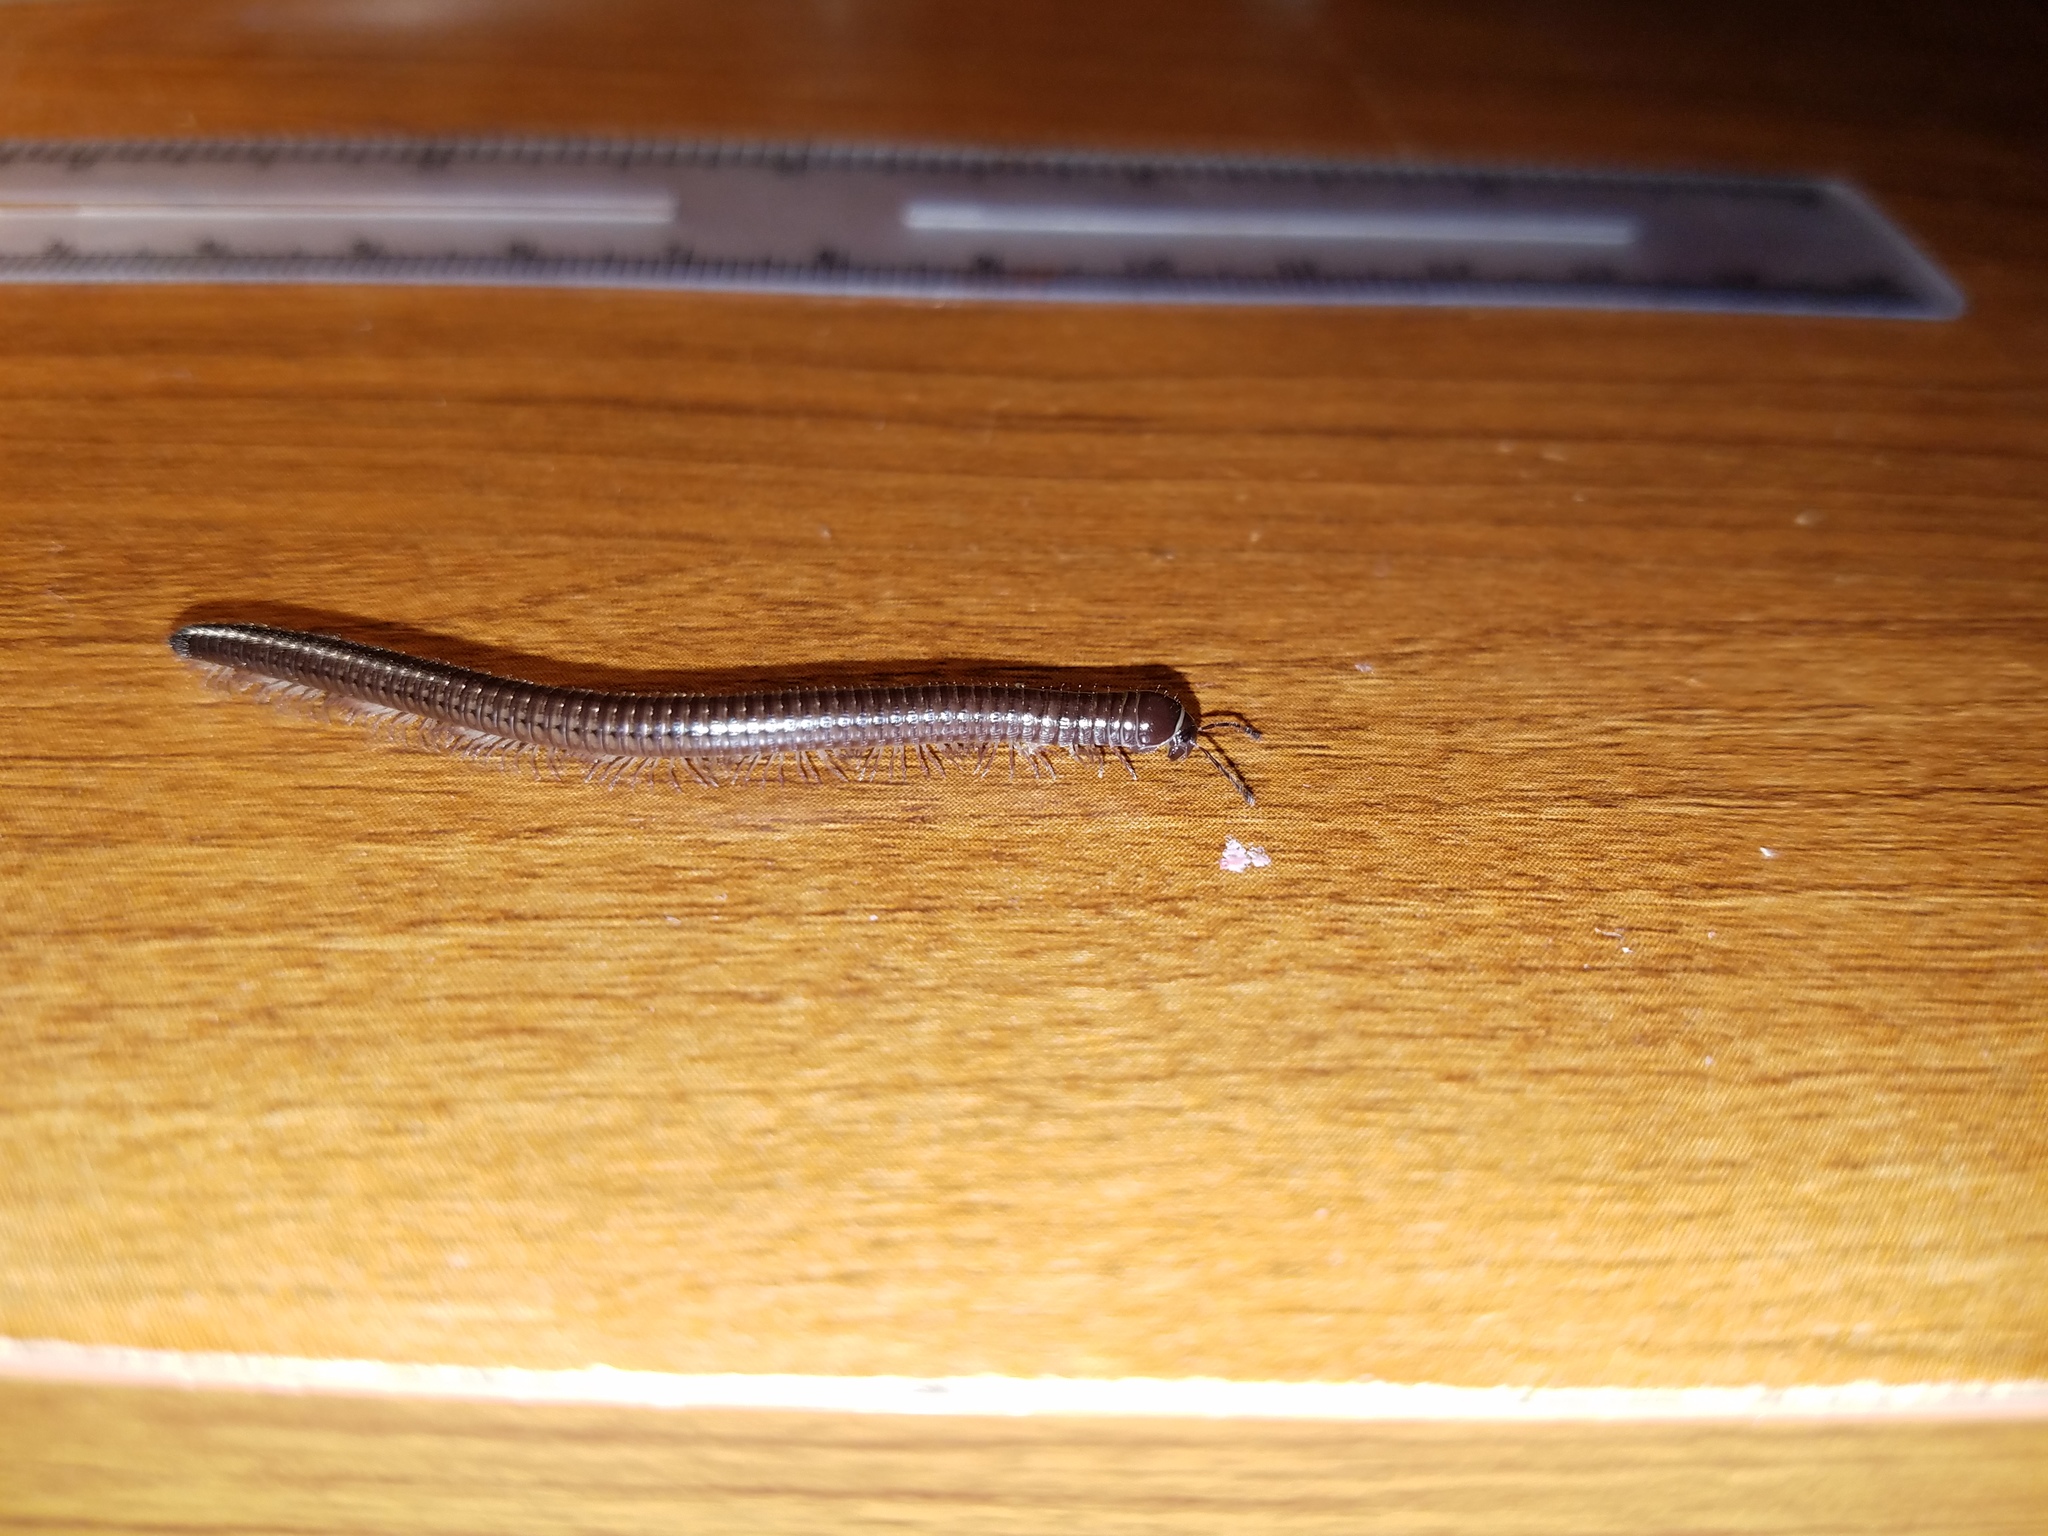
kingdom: Animalia
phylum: Arthropoda
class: Diplopoda
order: Julida
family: Parajulidae
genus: Ptyoiulus
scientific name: Ptyoiulus impressus
